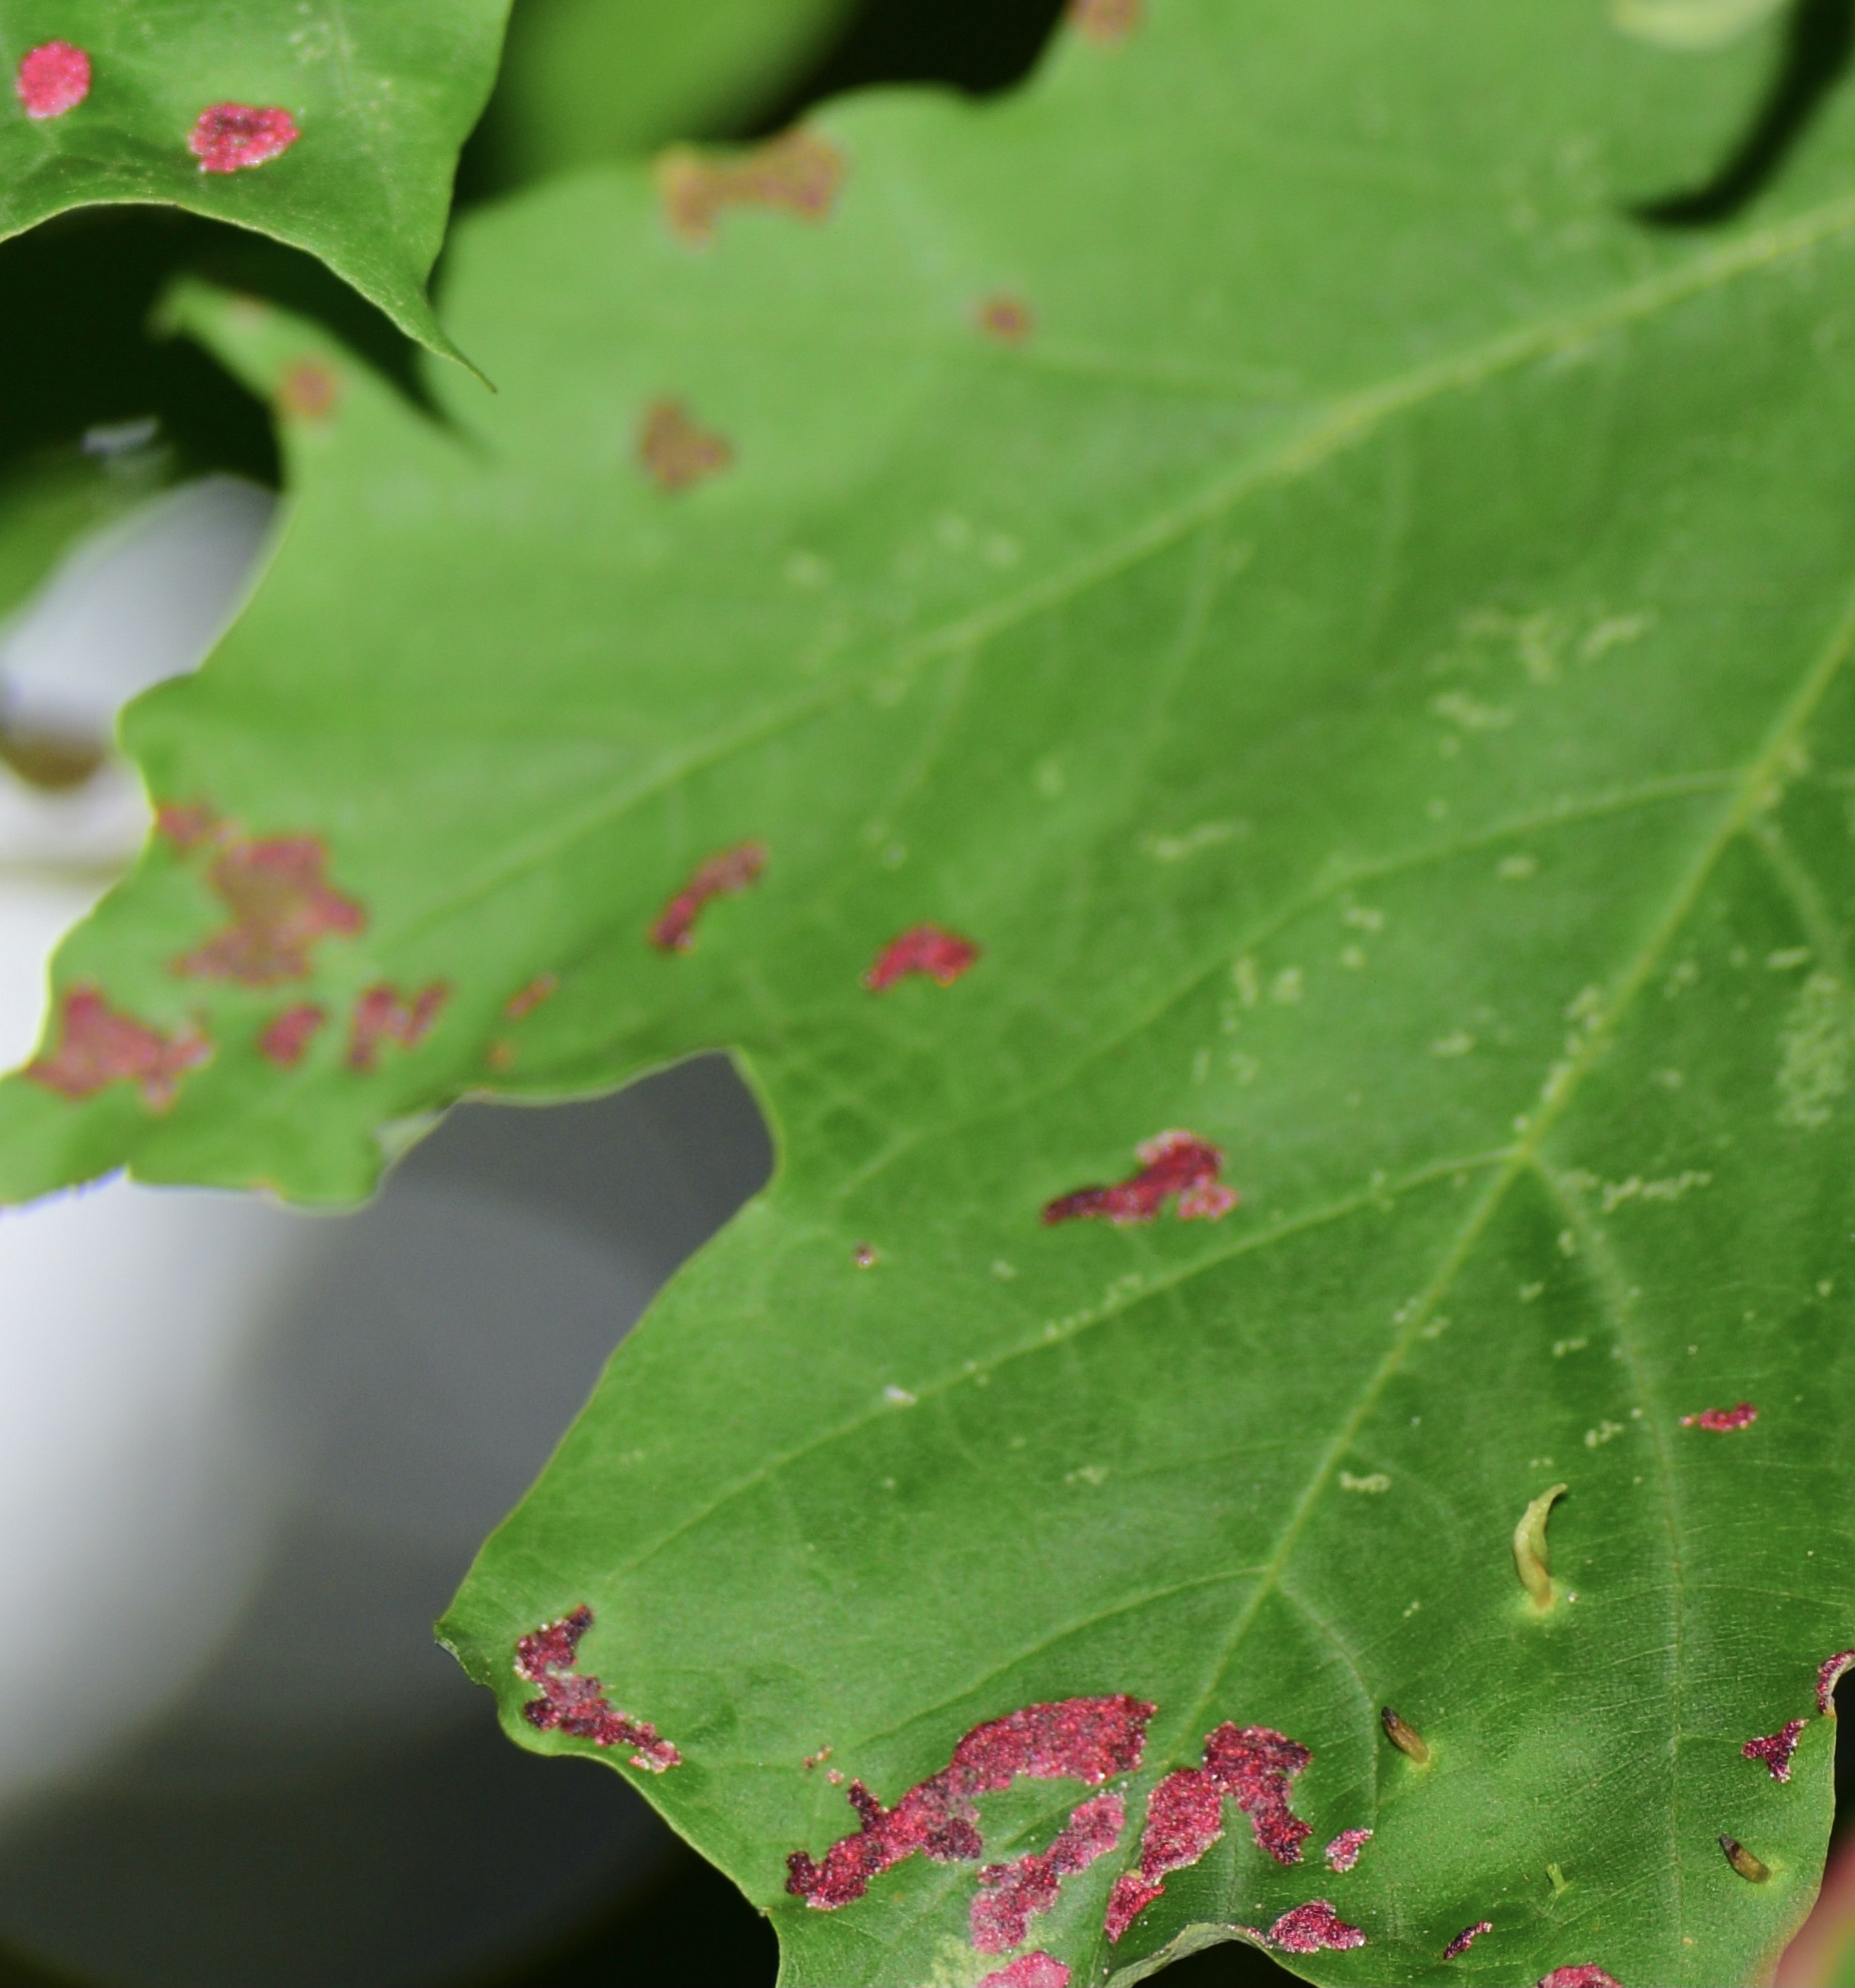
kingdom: Animalia
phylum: Arthropoda
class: Arachnida
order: Trombidiformes
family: Eriophyidae
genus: Aceria
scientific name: Aceria
